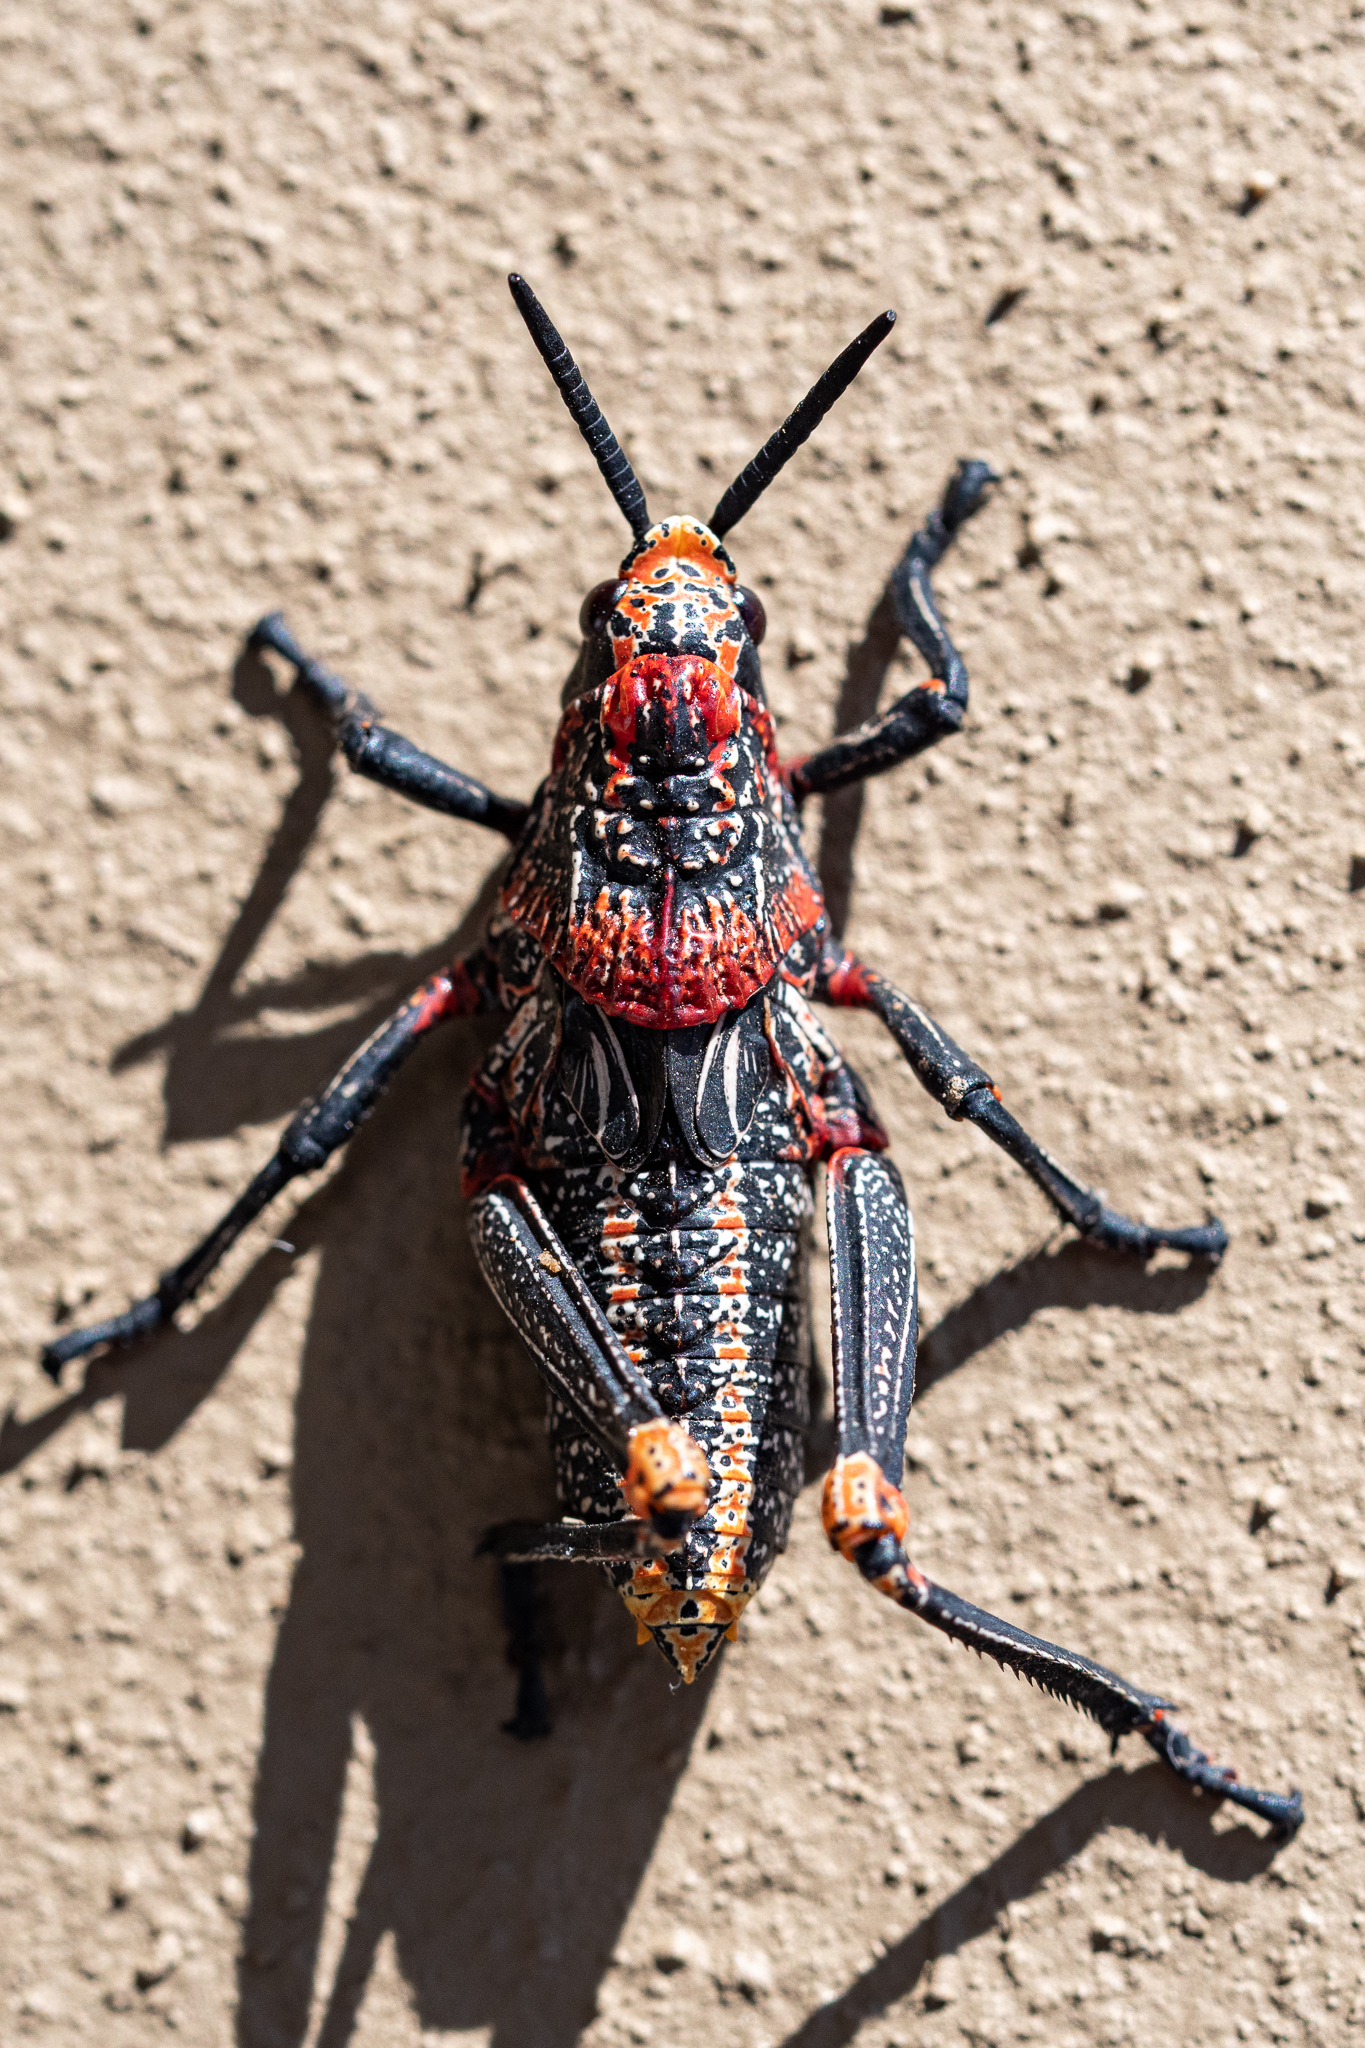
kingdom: Animalia
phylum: Arthropoda
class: Insecta
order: Orthoptera
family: Pyrgomorphidae
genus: Dictyophorus
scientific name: Dictyophorus spumans
